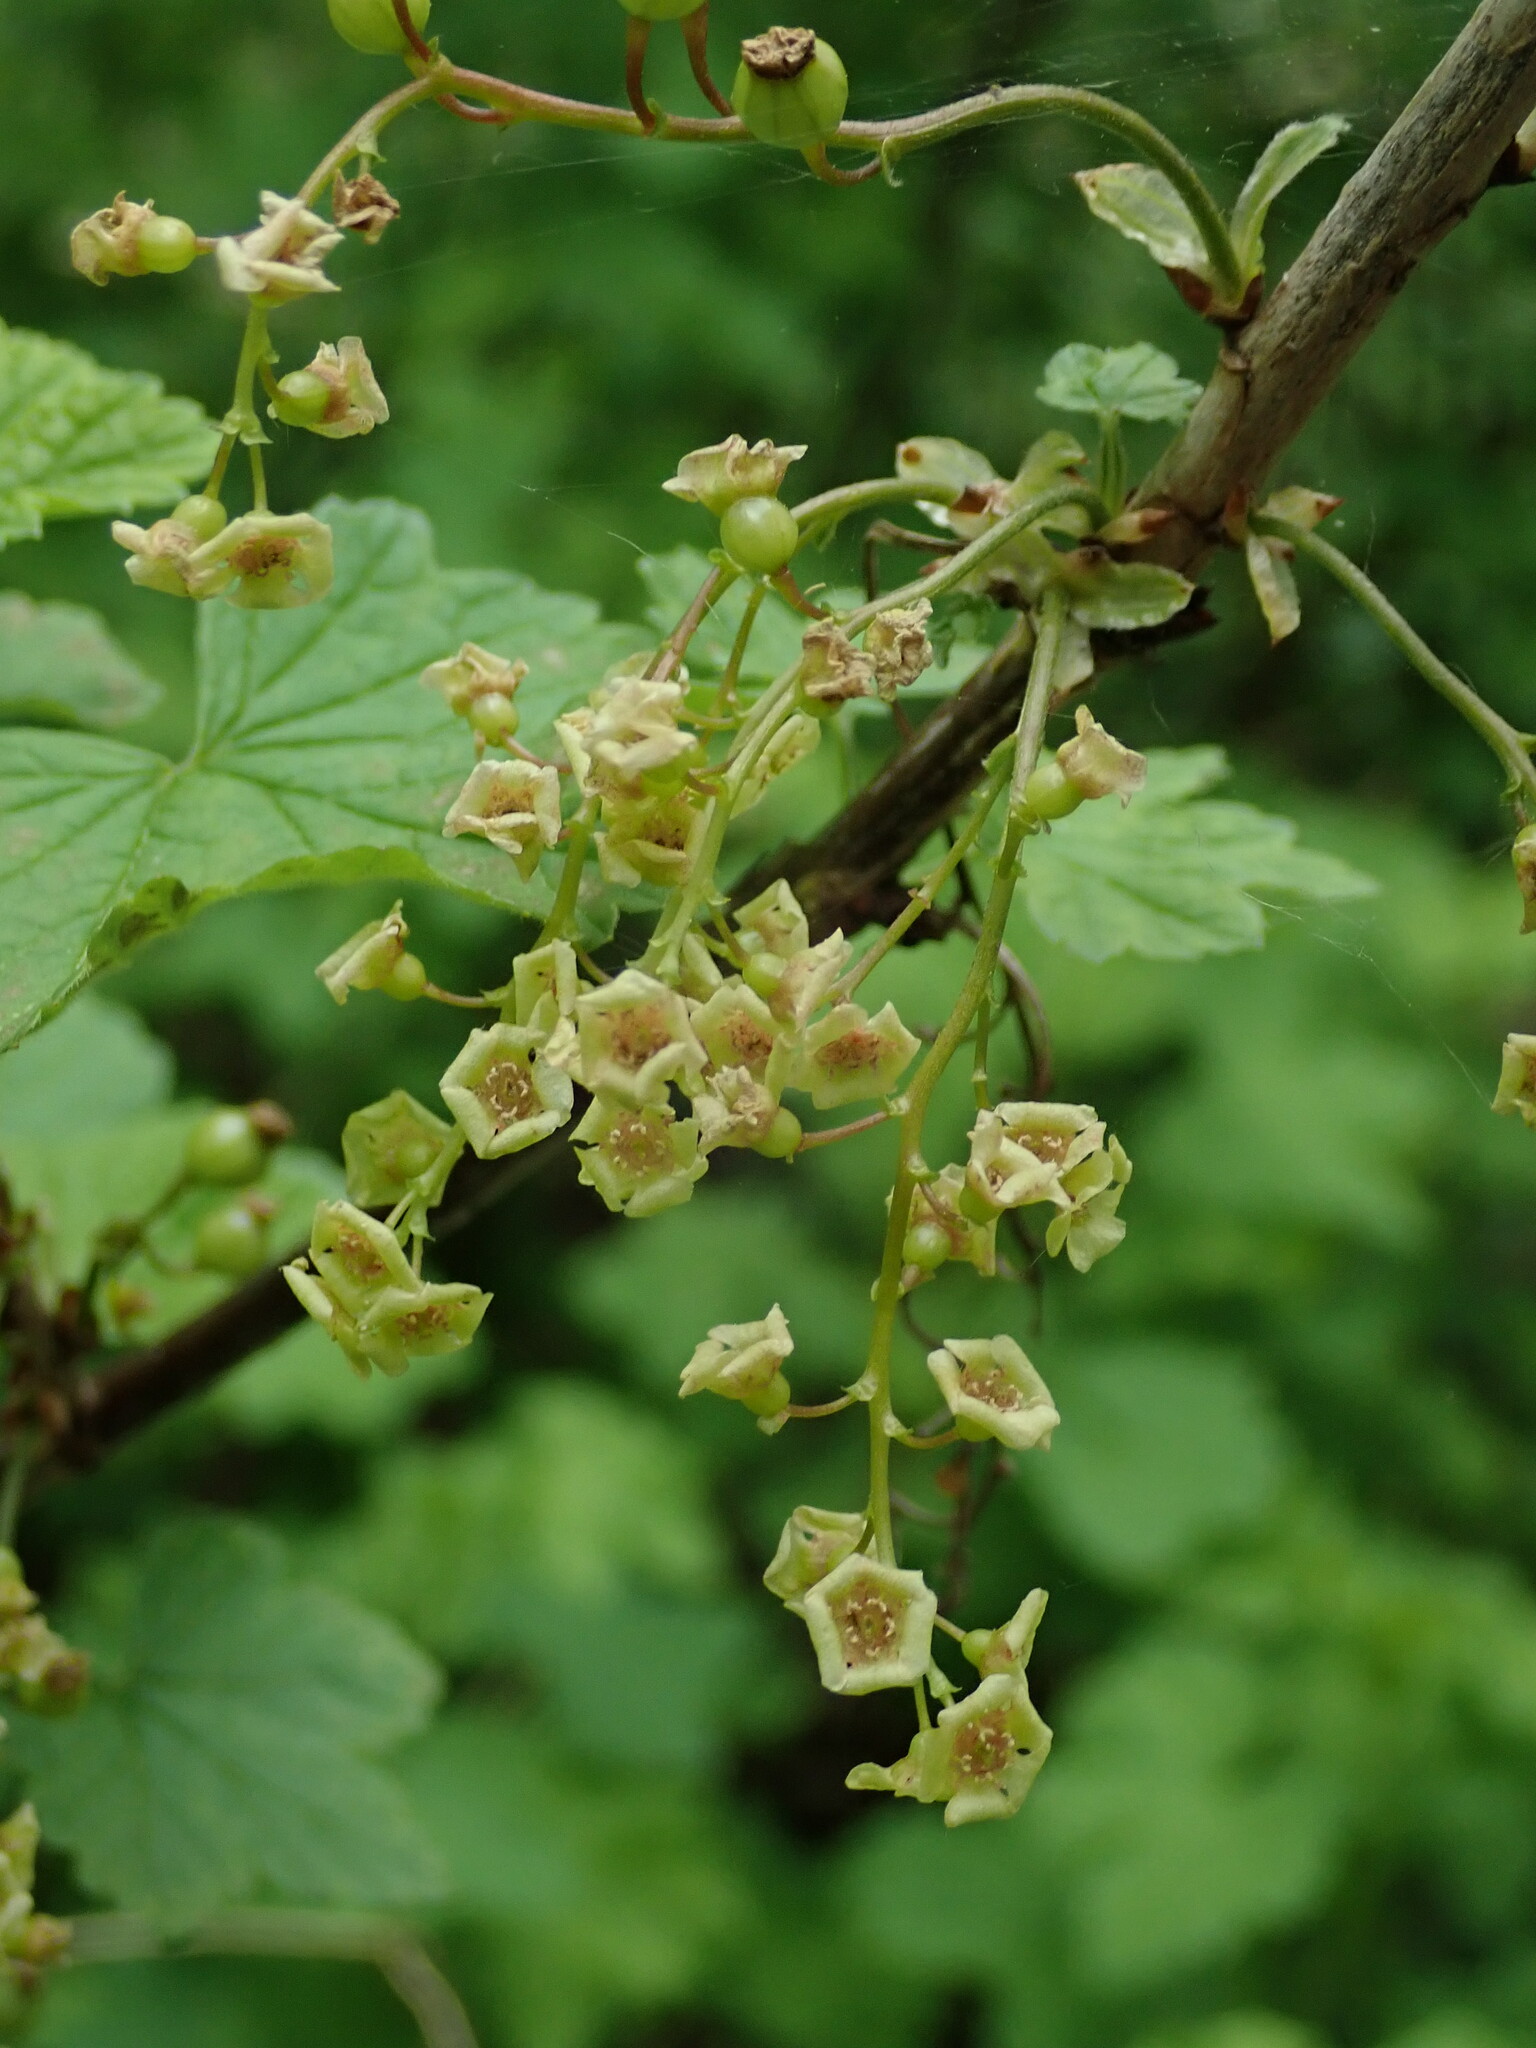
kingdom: Plantae
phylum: Tracheophyta
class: Magnoliopsida
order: Saxifragales
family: Grossulariaceae
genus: Ribes
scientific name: Ribes rubrum
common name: Red currant
